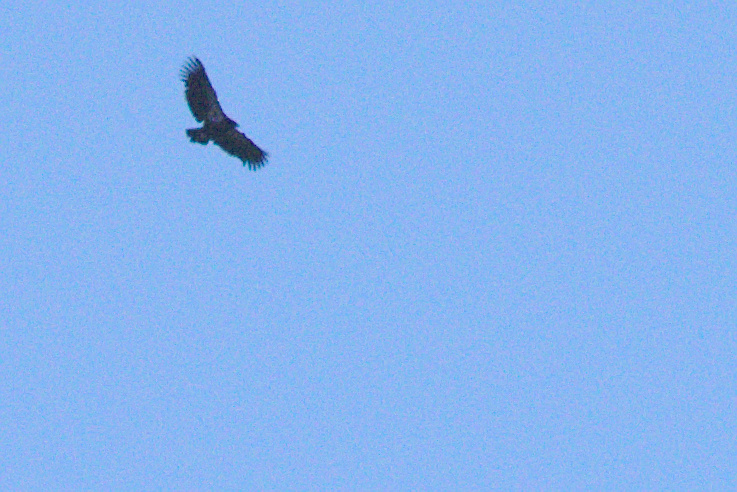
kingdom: Animalia
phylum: Chordata
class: Aves
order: Accipitriformes
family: Cathartidae
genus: Gymnogyps
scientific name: Gymnogyps californianus
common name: California condor
